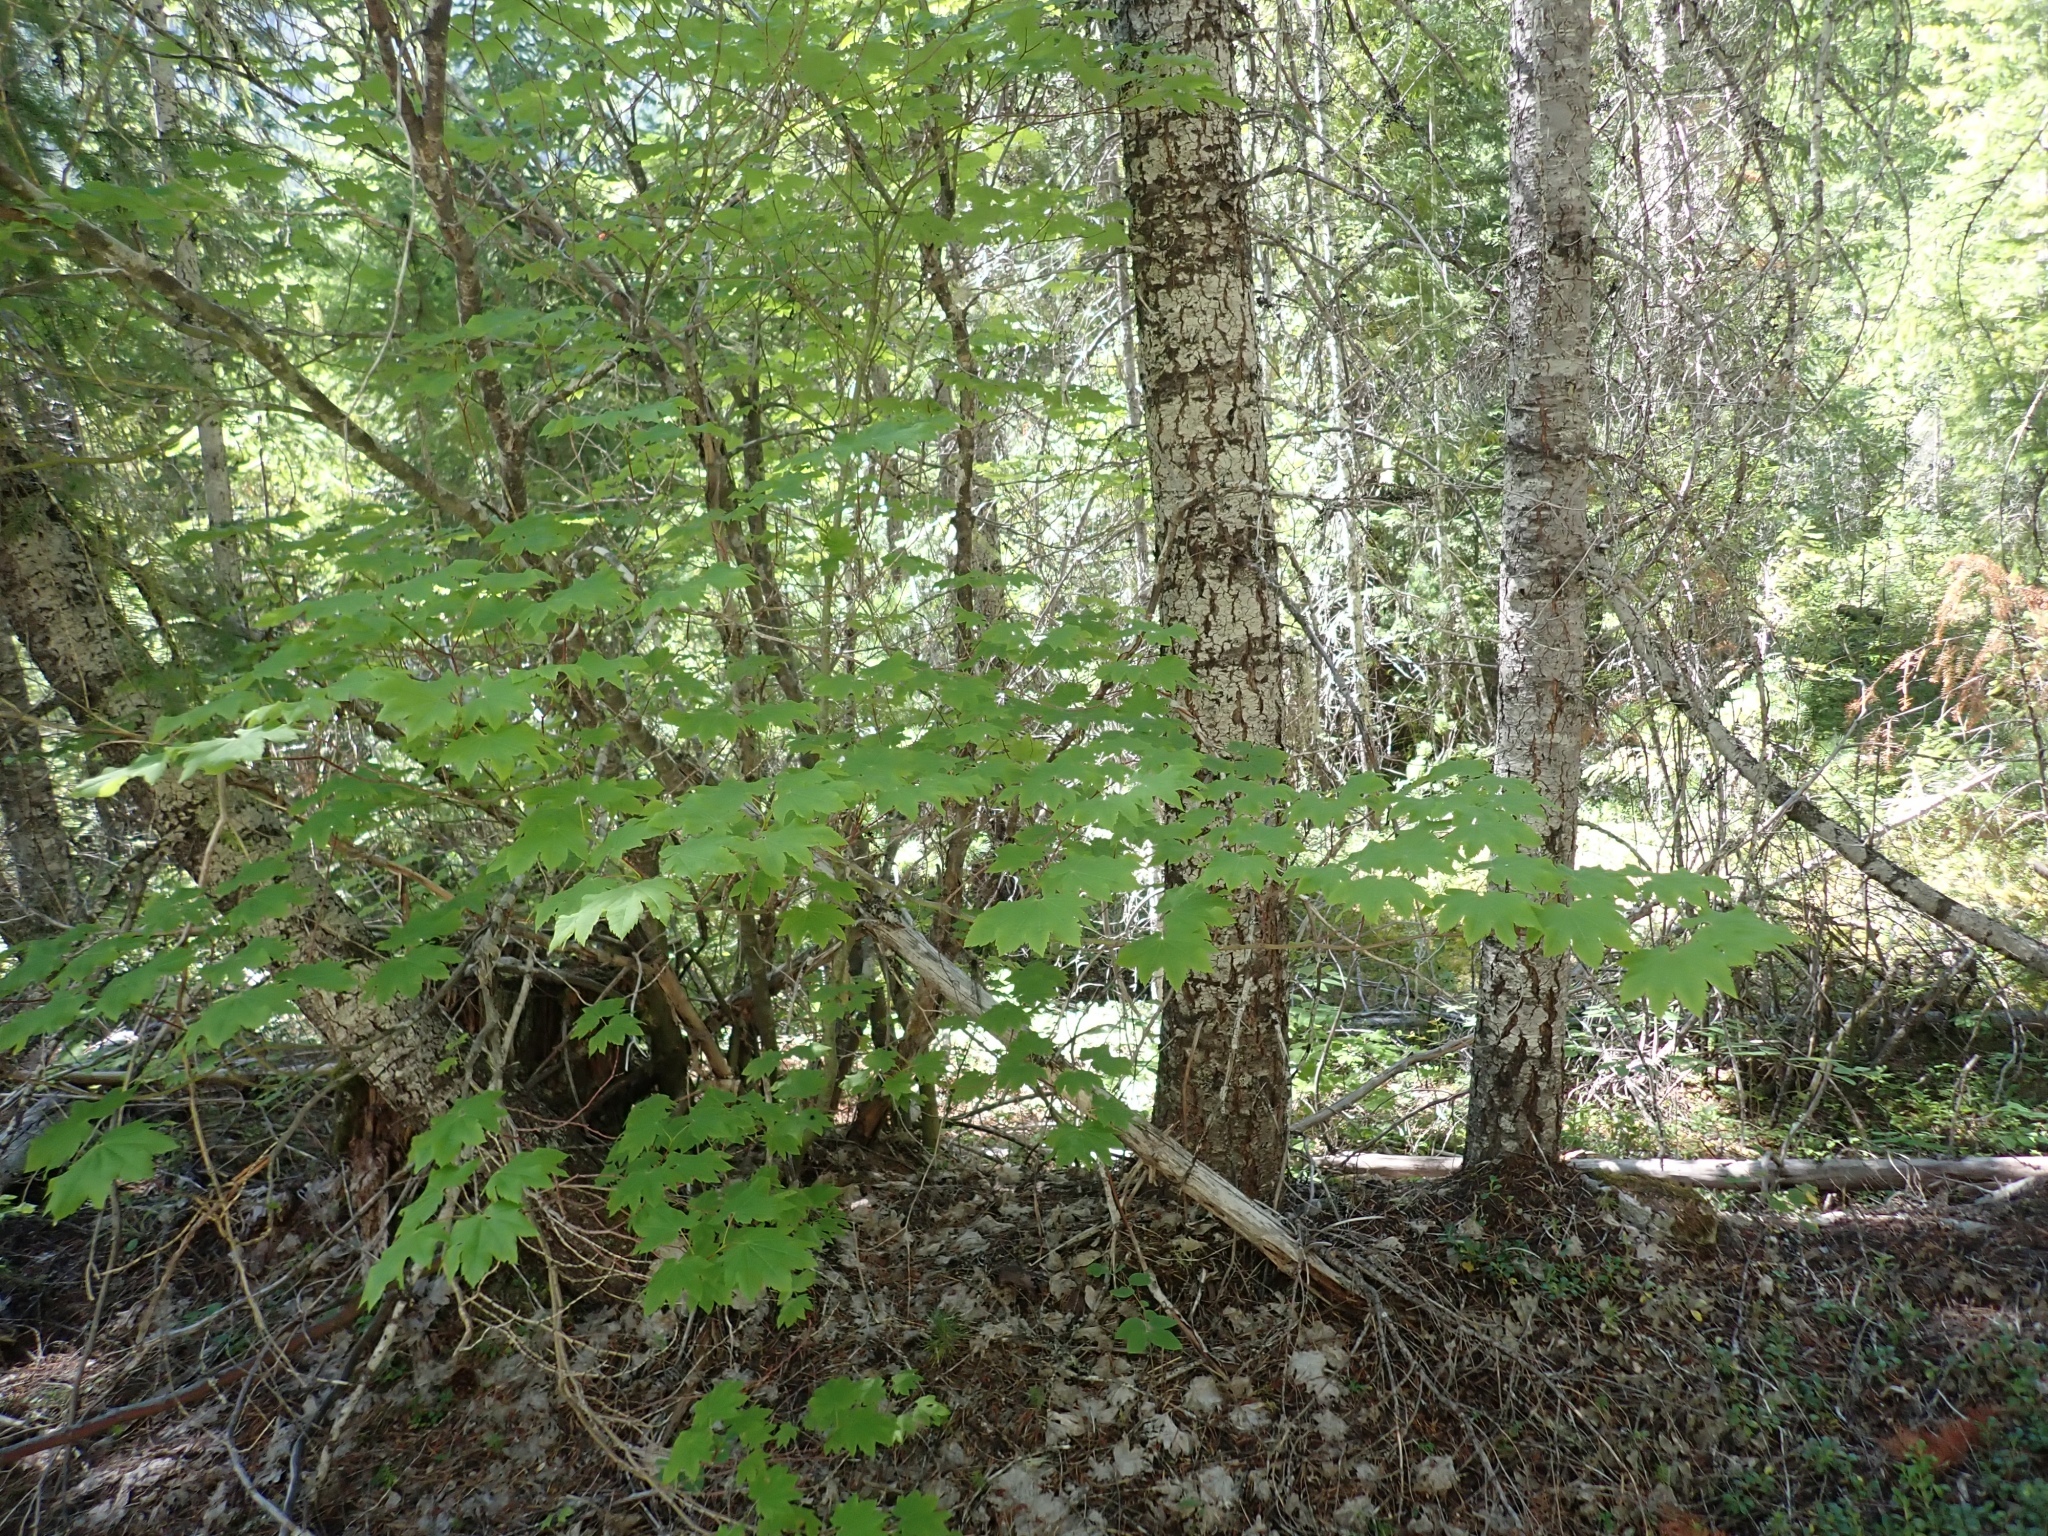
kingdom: Plantae
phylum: Tracheophyta
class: Magnoliopsida
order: Sapindales
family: Sapindaceae
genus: Acer
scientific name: Acer circinatum
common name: Vine maple
